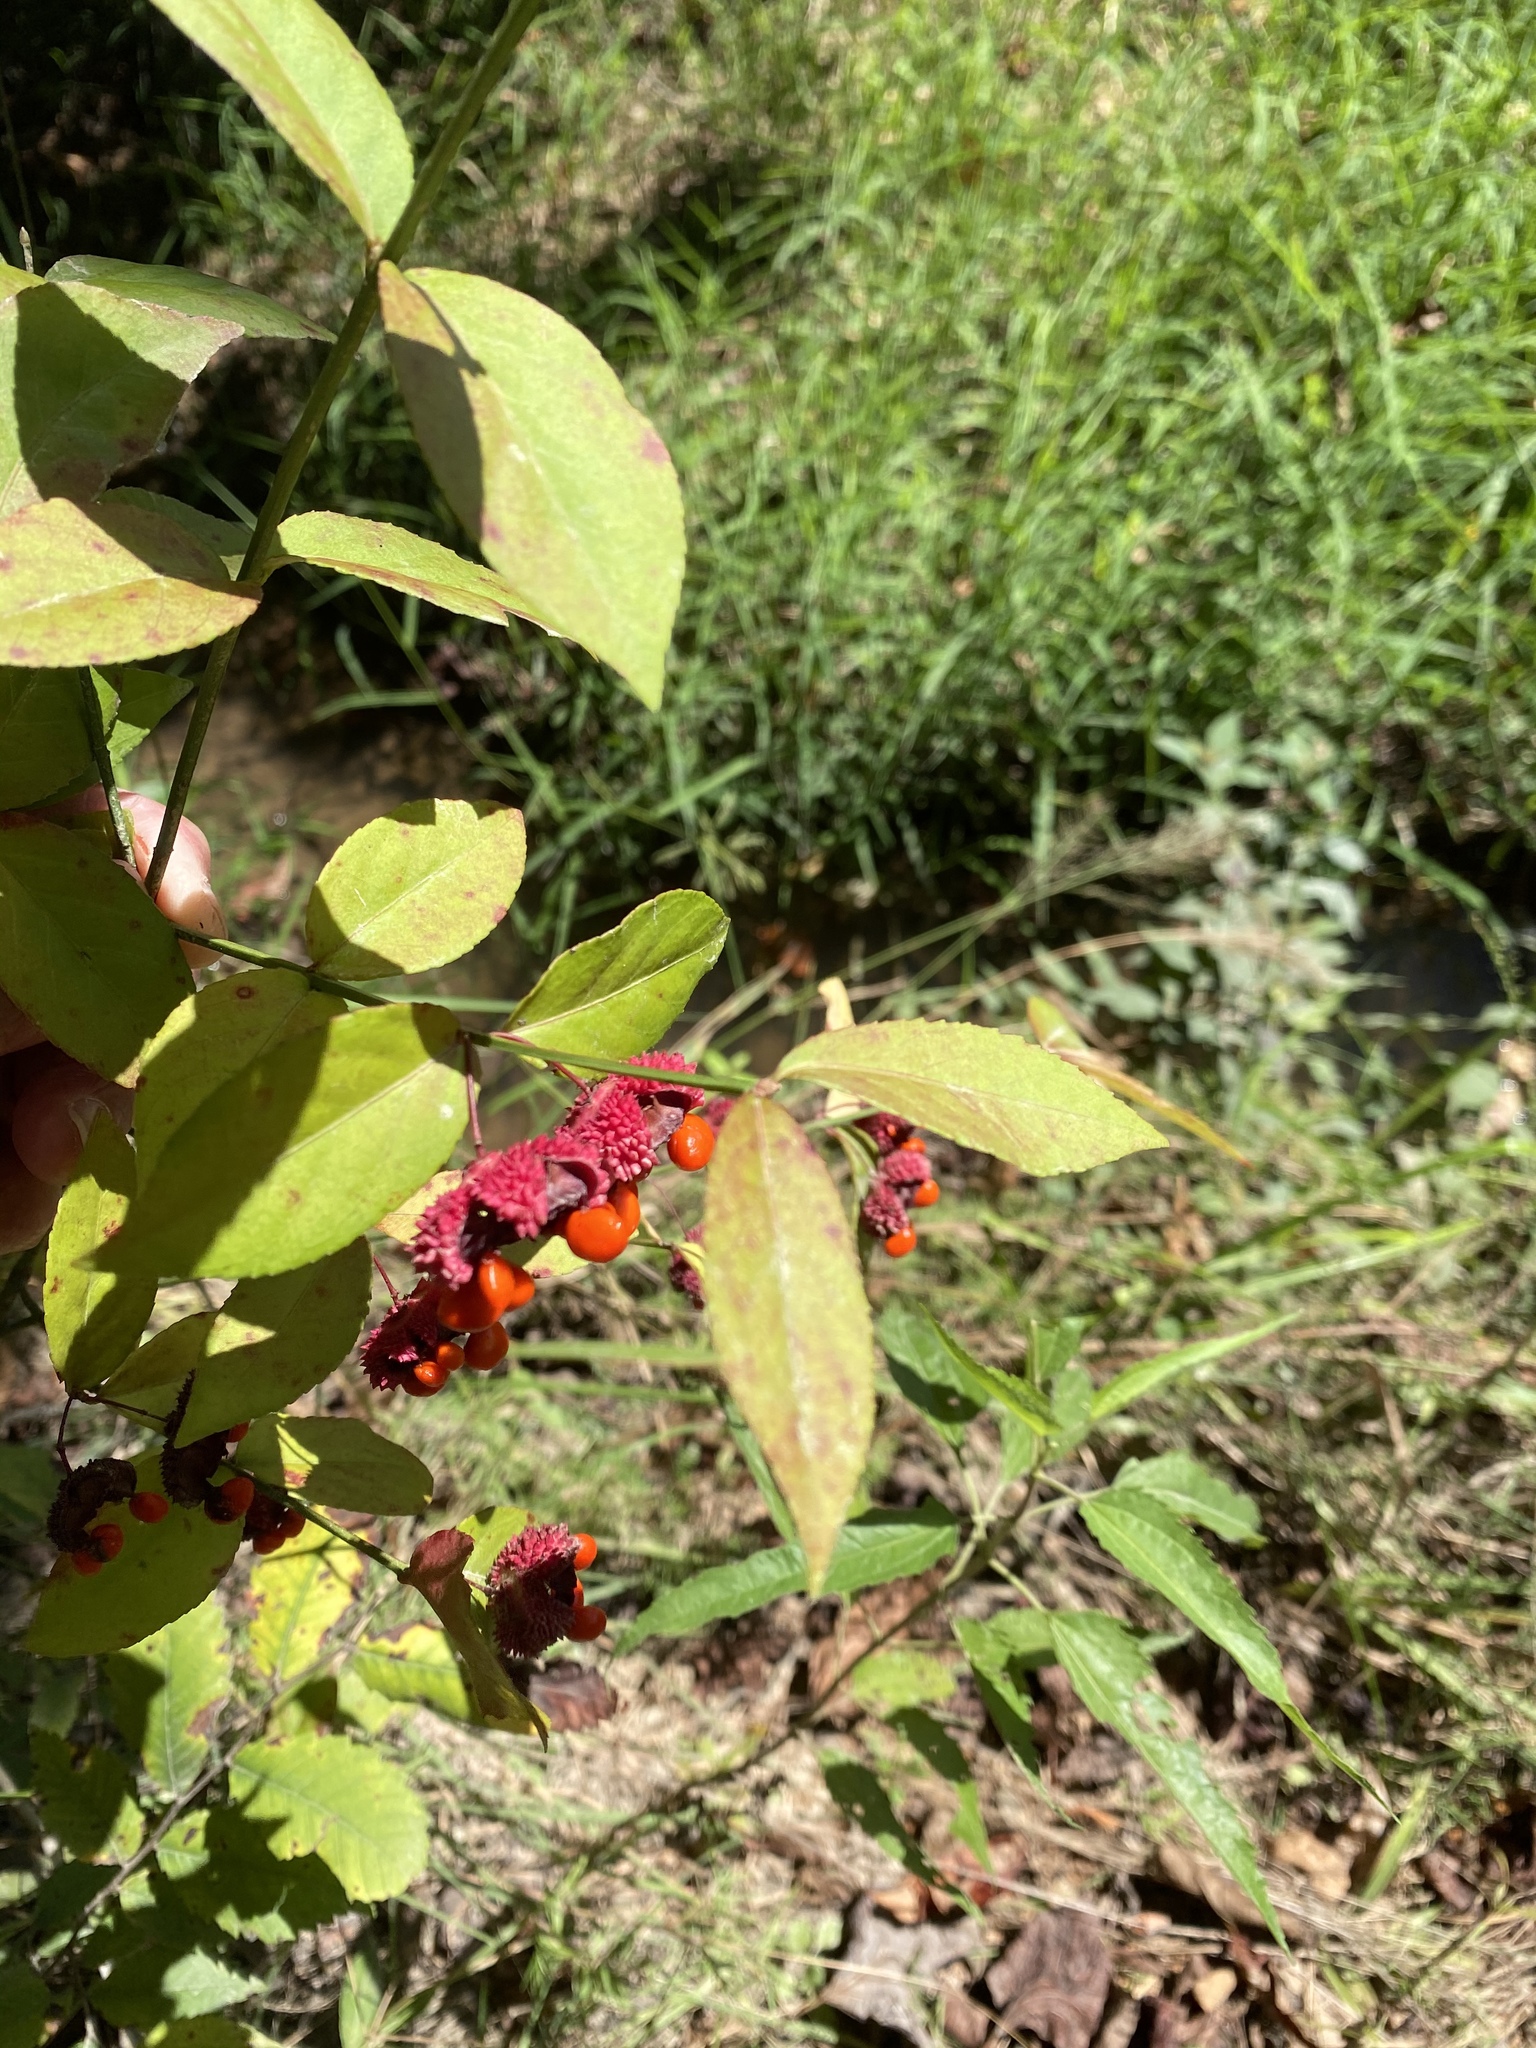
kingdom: Plantae
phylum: Tracheophyta
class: Magnoliopsida
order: Celastrales
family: Celastraceae
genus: Euonymus
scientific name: Euonymus americanus
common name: Bursting-heart
